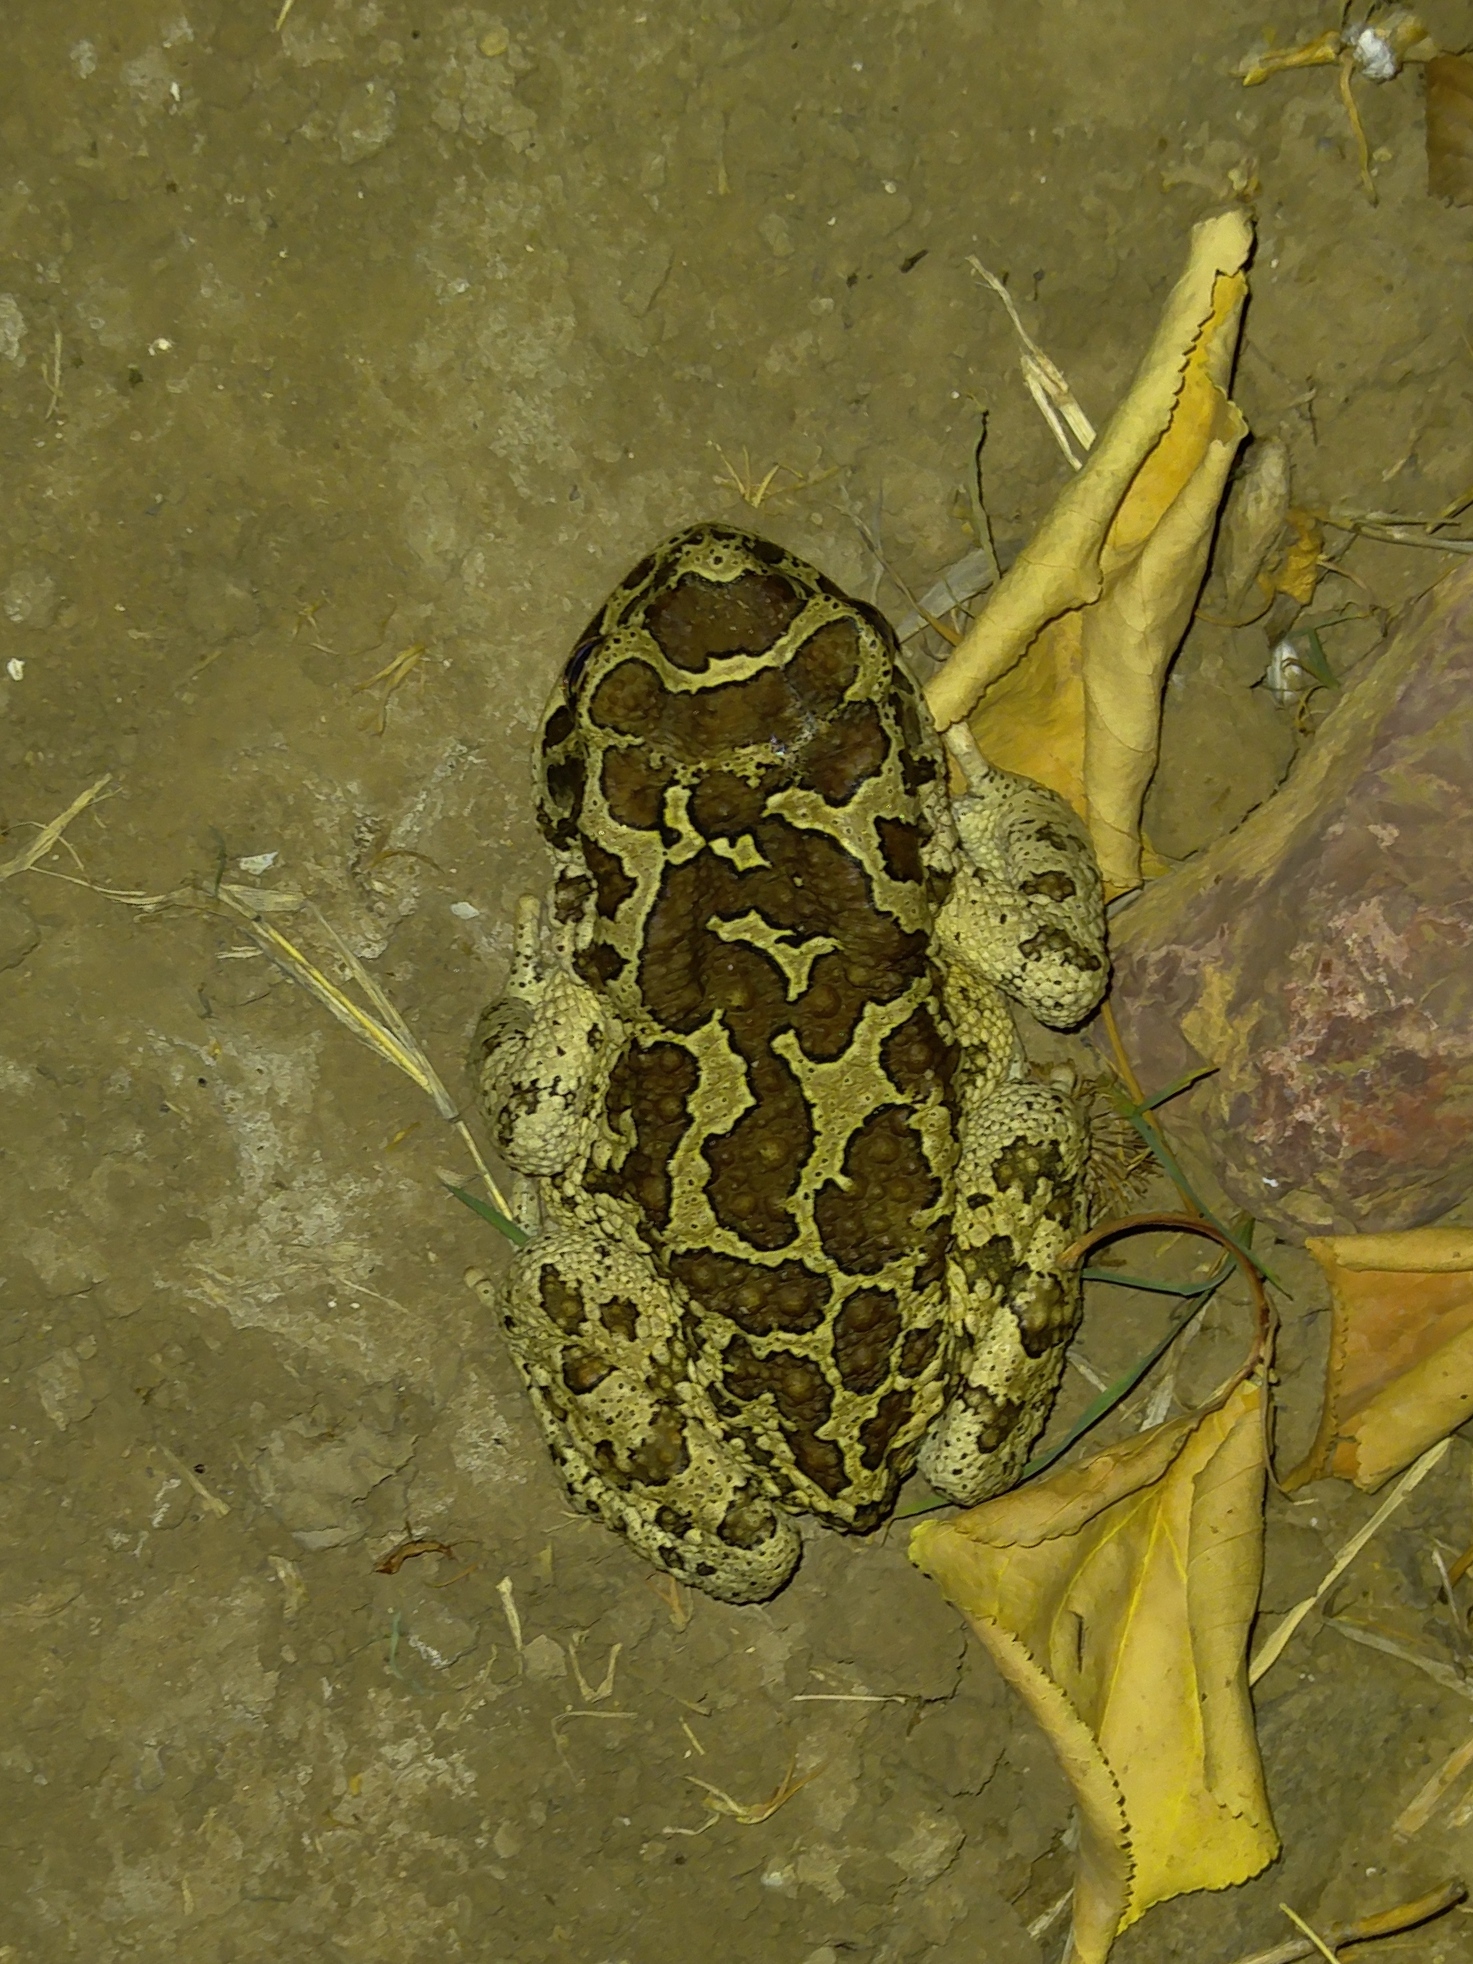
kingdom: Animalia
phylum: Chordata
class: Amphibia
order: Anura
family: Bufonidae
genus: Sclerophrys
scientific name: Sclerophrys mauritanica
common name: Berber toad
